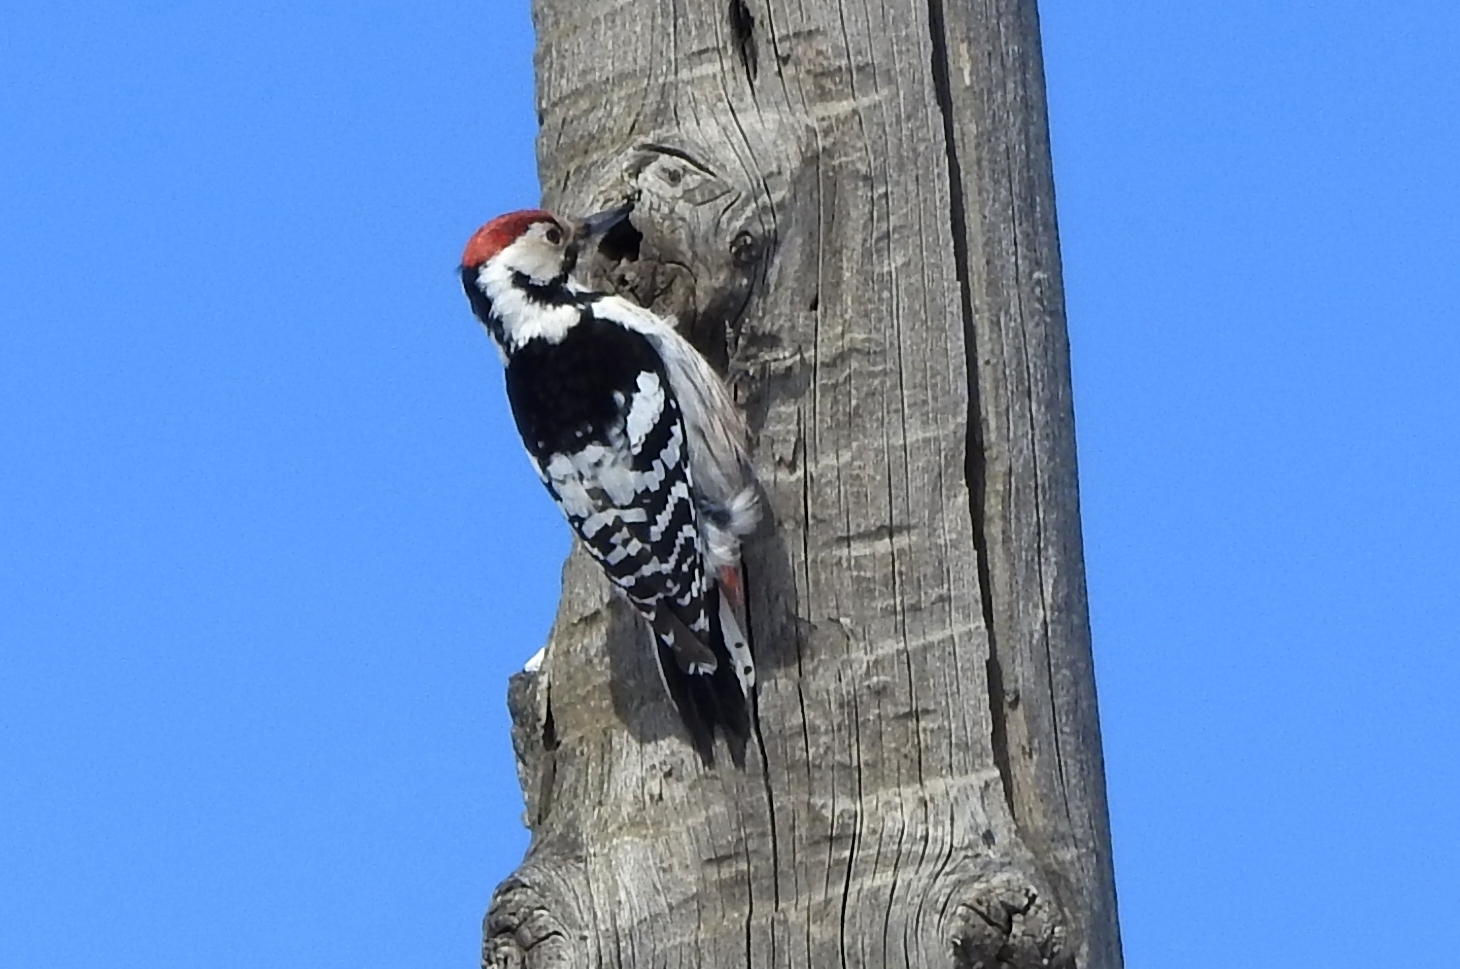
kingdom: Animalia
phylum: Chordata
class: Aves
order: Piciformes
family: Picidae
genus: Dendrocopos
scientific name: Dendrocopos leucotos
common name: White-backed woodpecker
